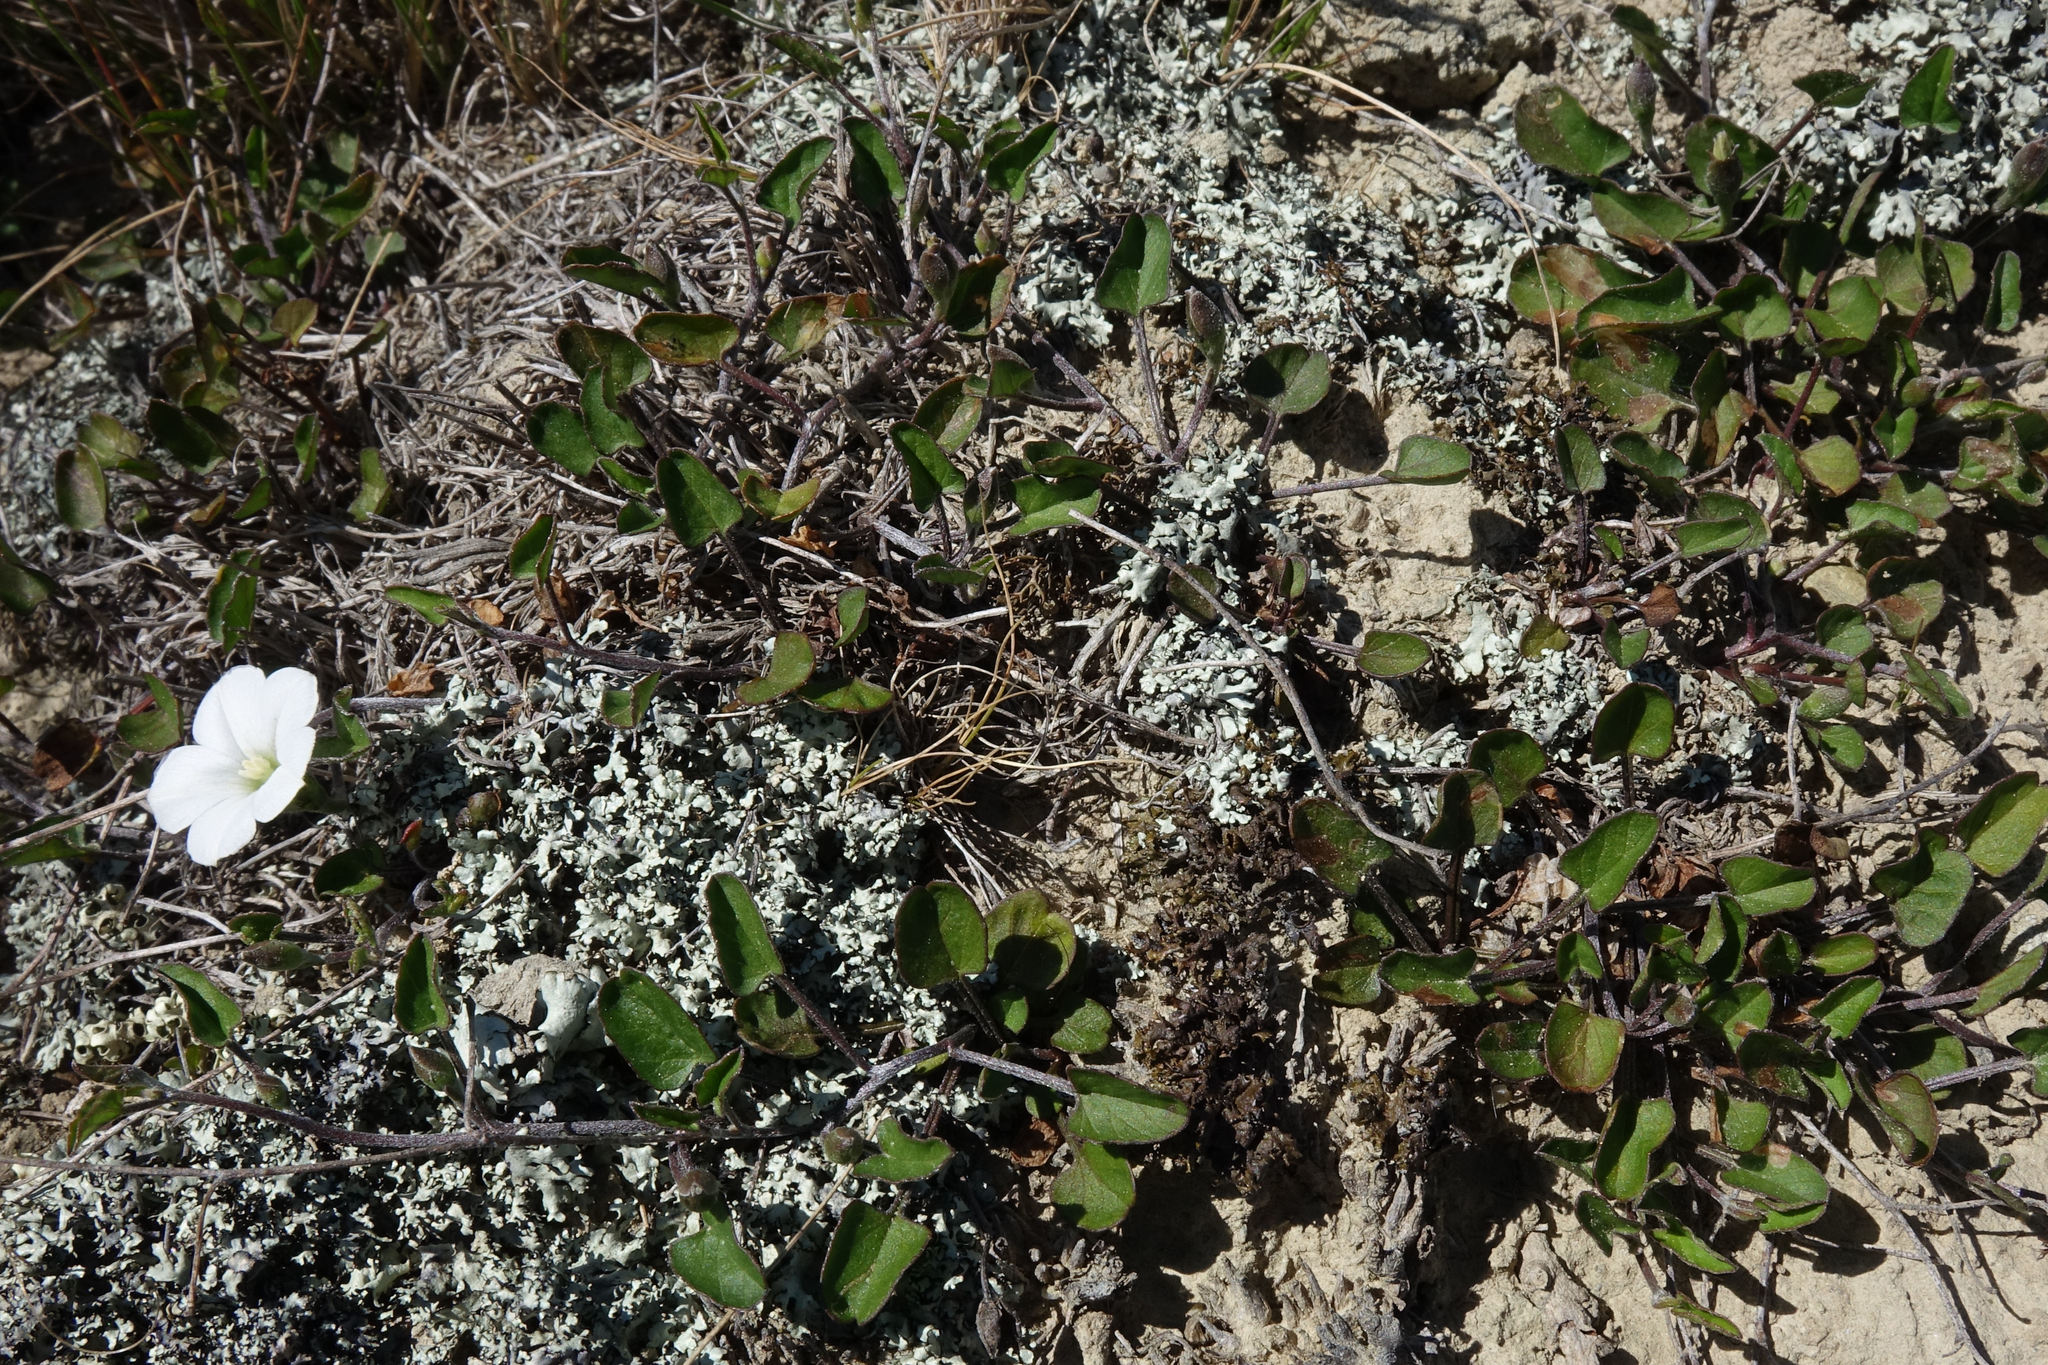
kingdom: Plantae
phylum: Tracheophyta
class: Magnoliopsida
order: Solanales
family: Convolvulaceae
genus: Convolvulus
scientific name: Convolvulus waitaha
